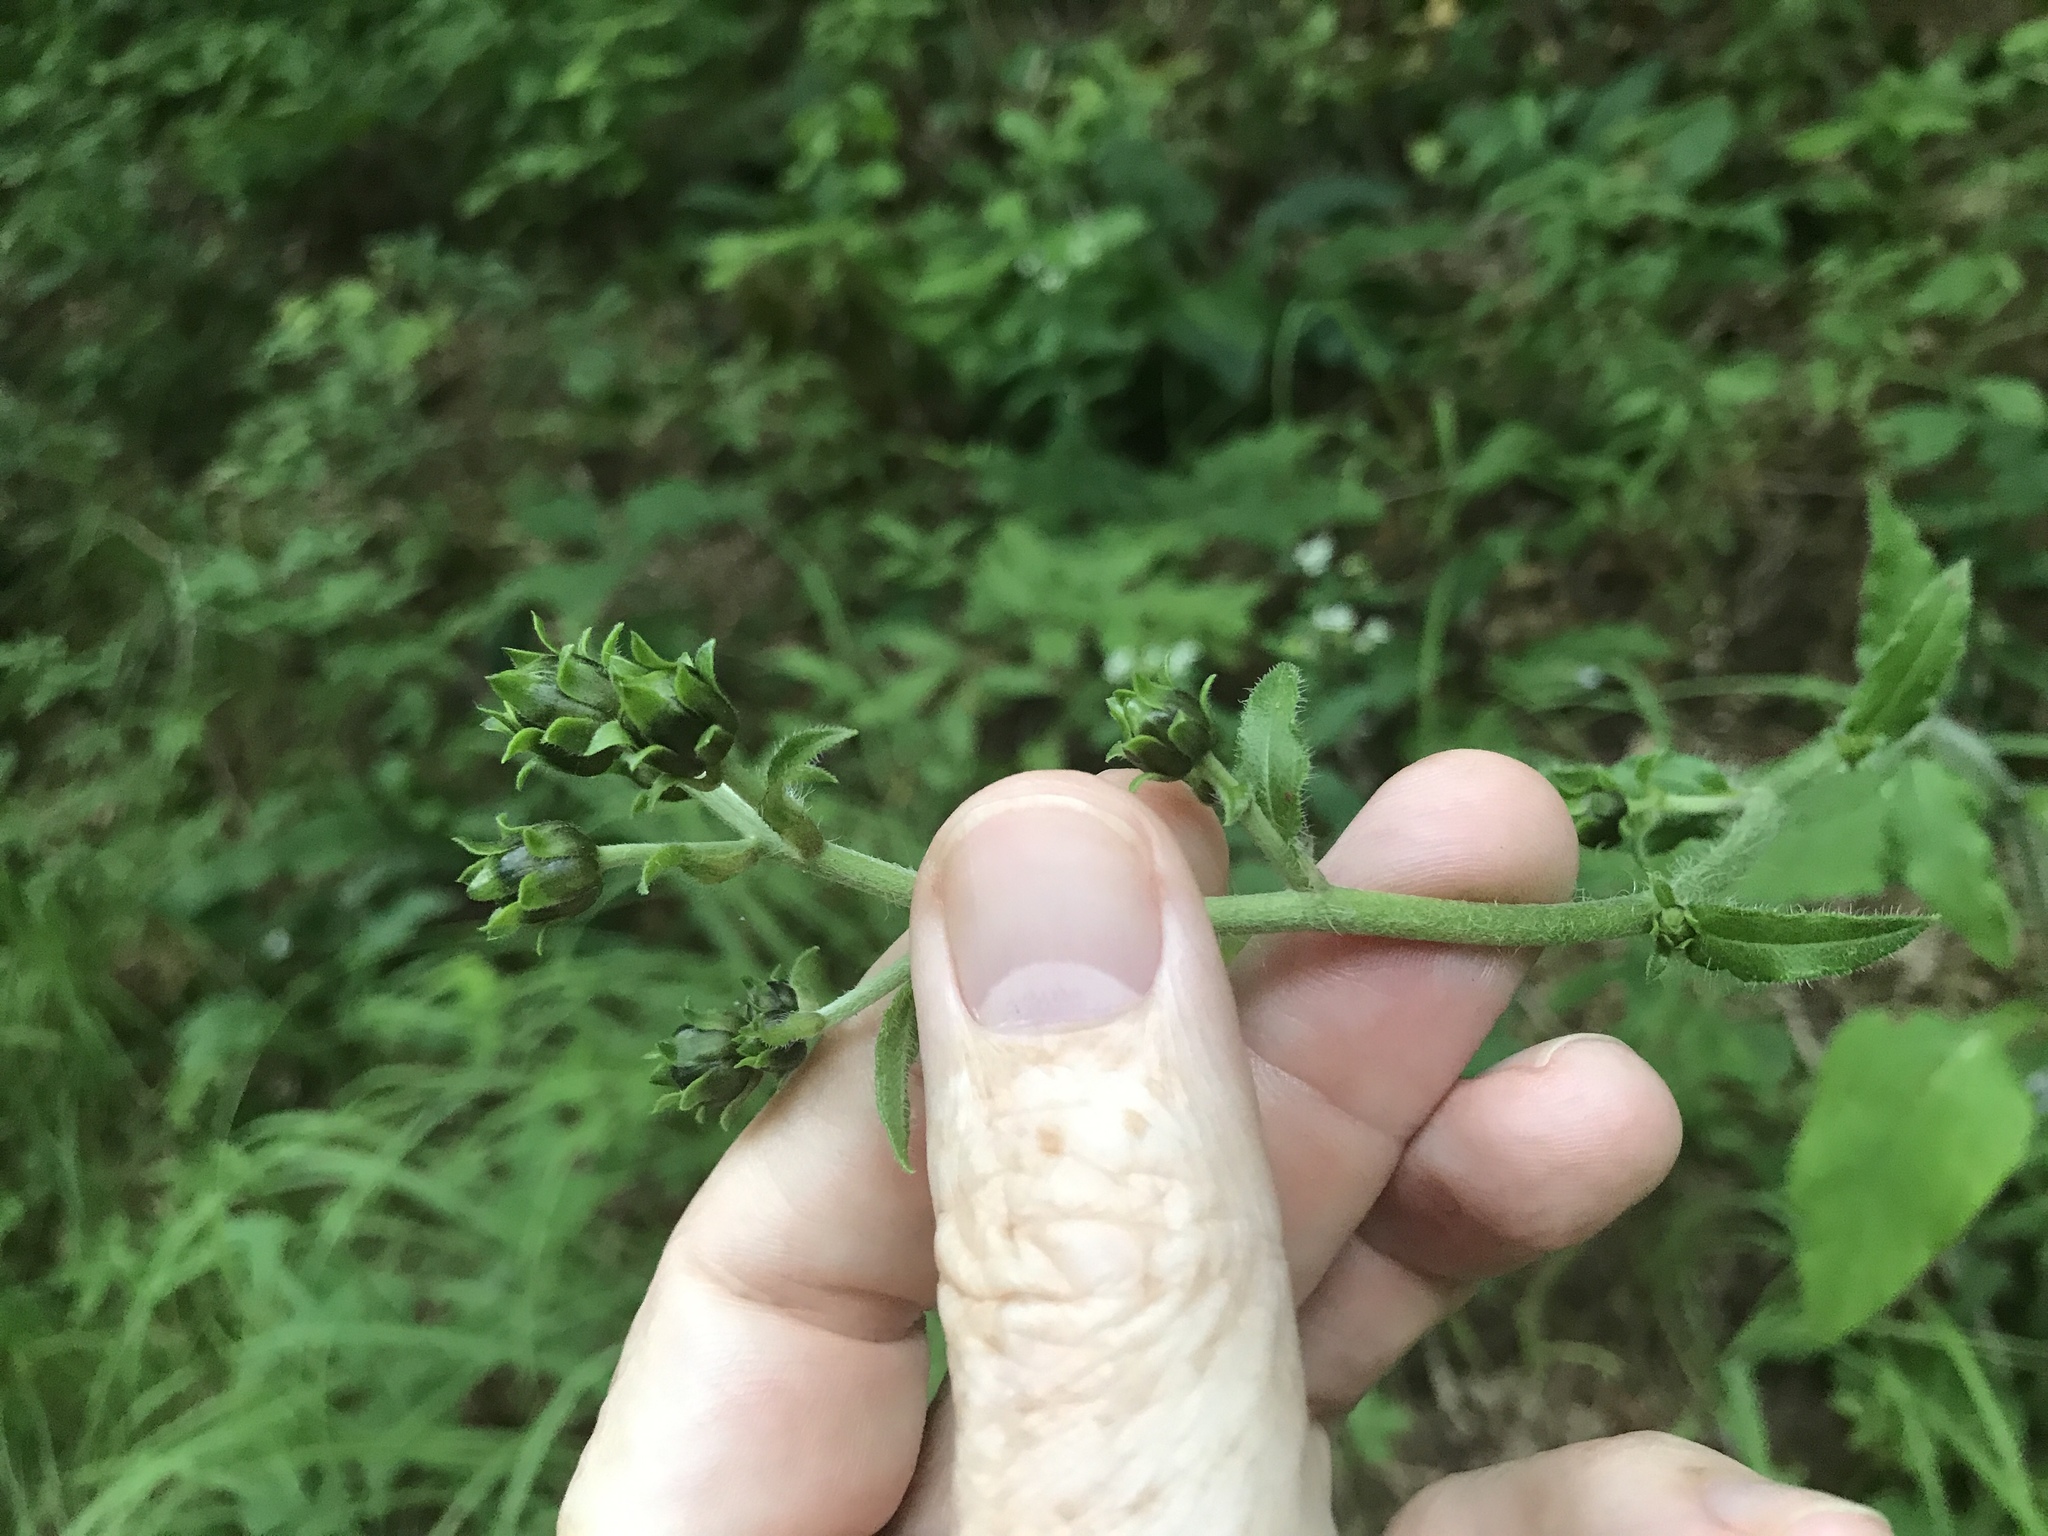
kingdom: Plantae
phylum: Tracheophyta
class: Magnoliopsida
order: Asterales
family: Asteraceae
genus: Helianthus
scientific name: Helianthus atrorubens
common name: Dark-eyed sunflower
